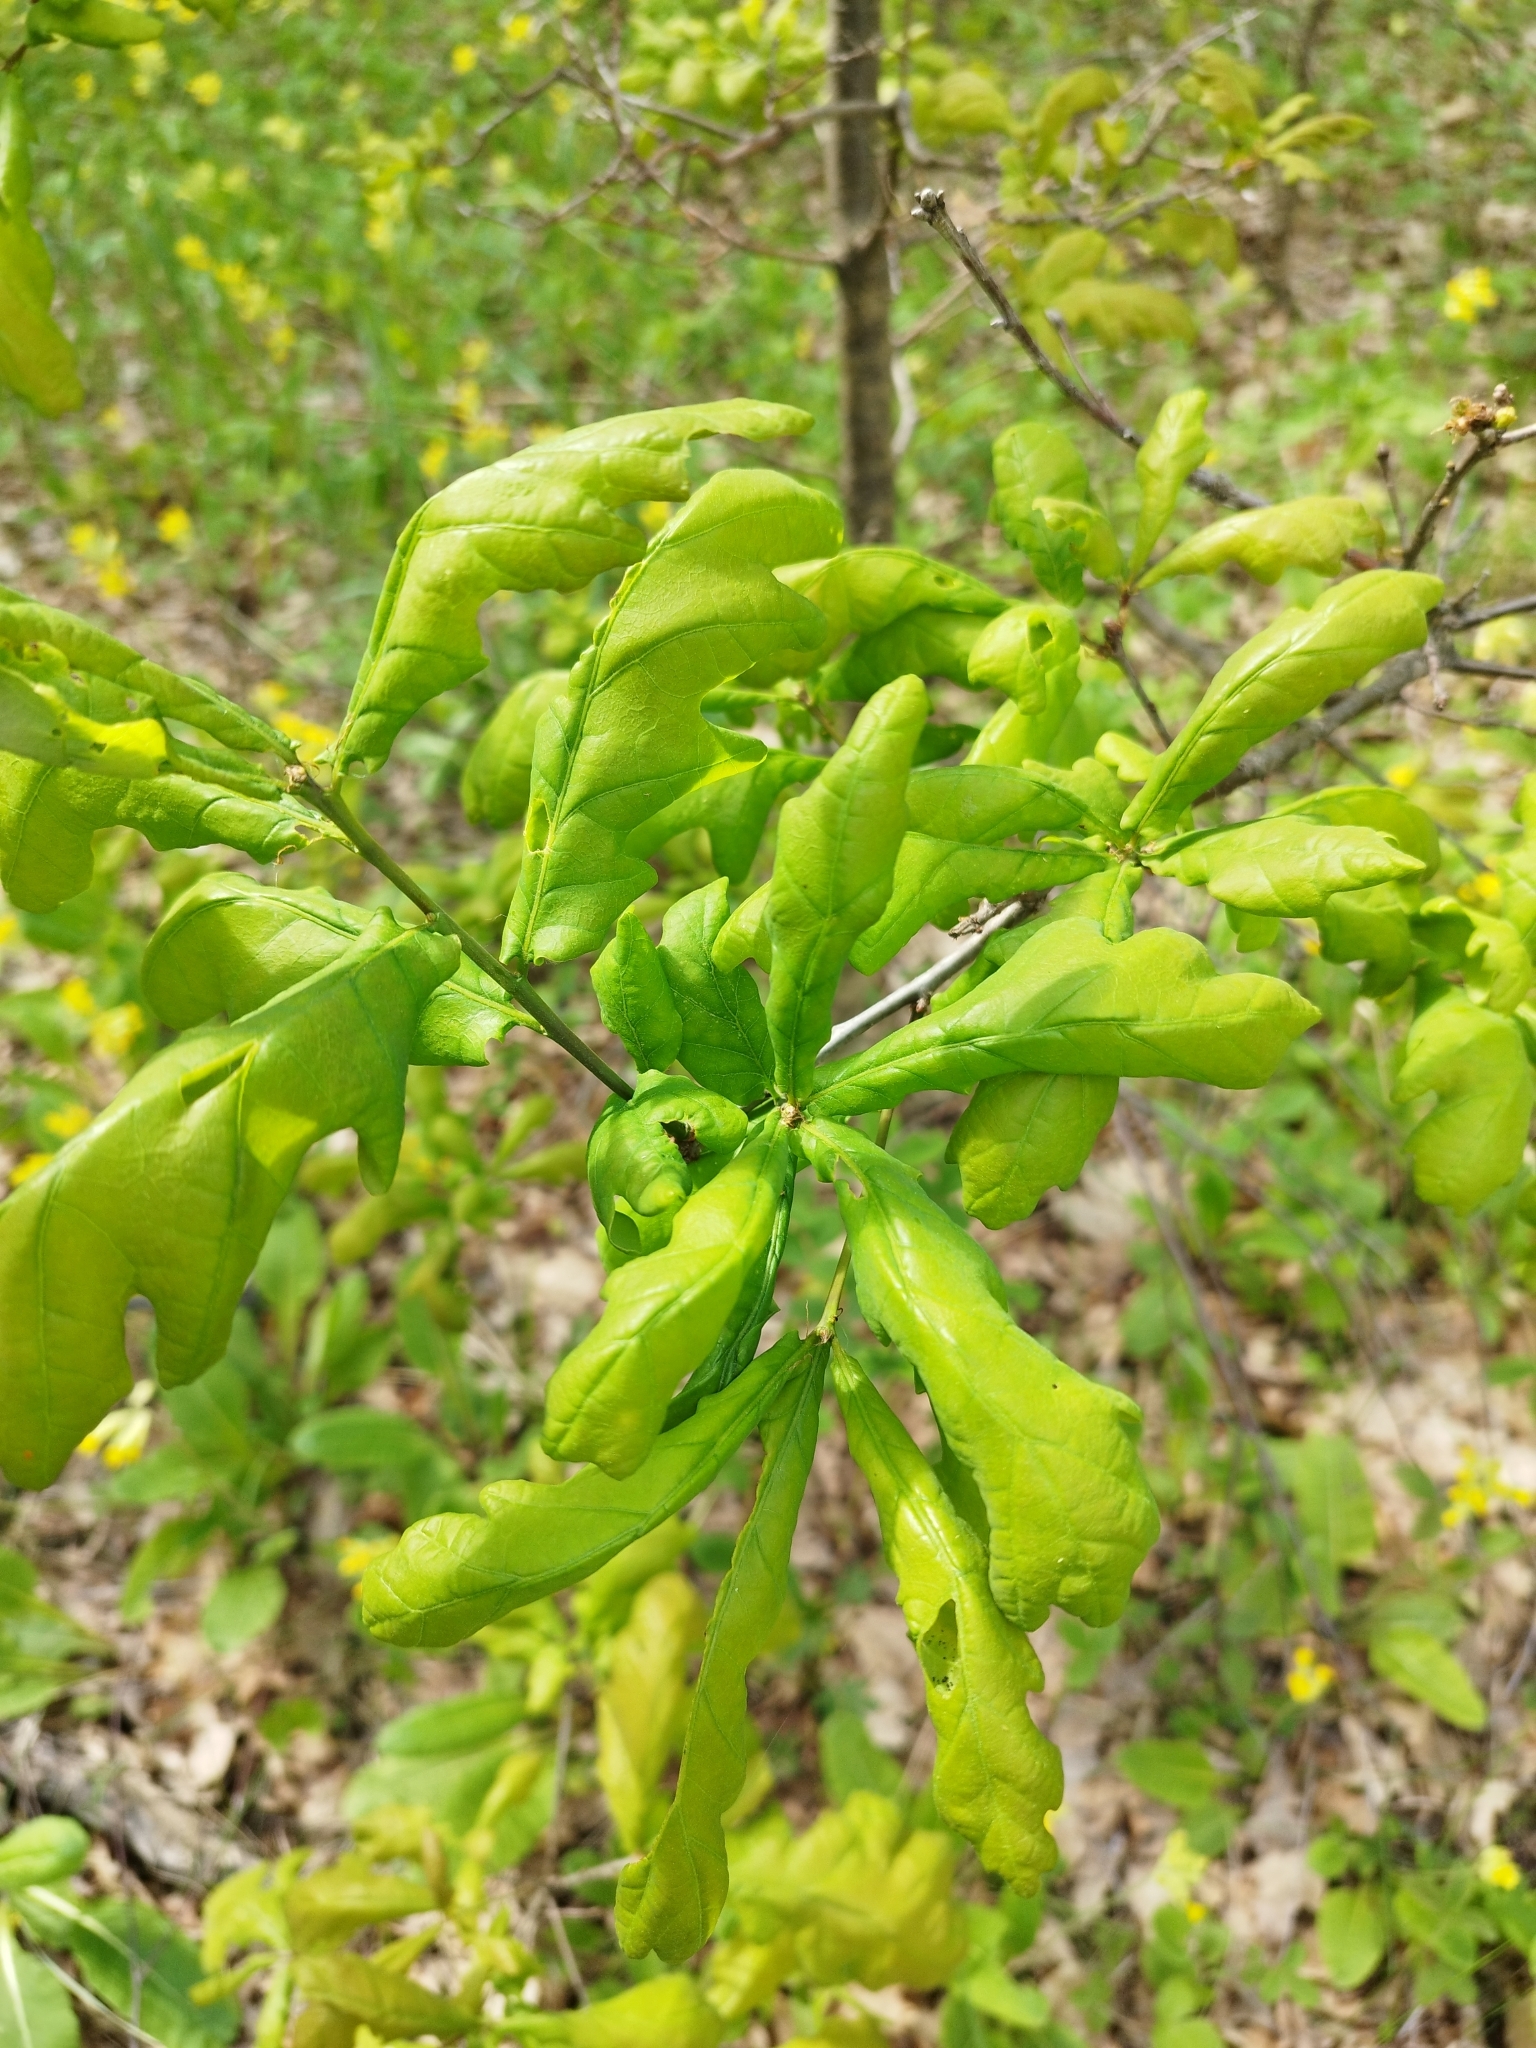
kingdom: Plantae
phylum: Tracheophyta
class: Magnoliopsida
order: Fagales
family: Fagaceae
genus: Quercus
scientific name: Quercus robur
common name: Pedunculate oak
